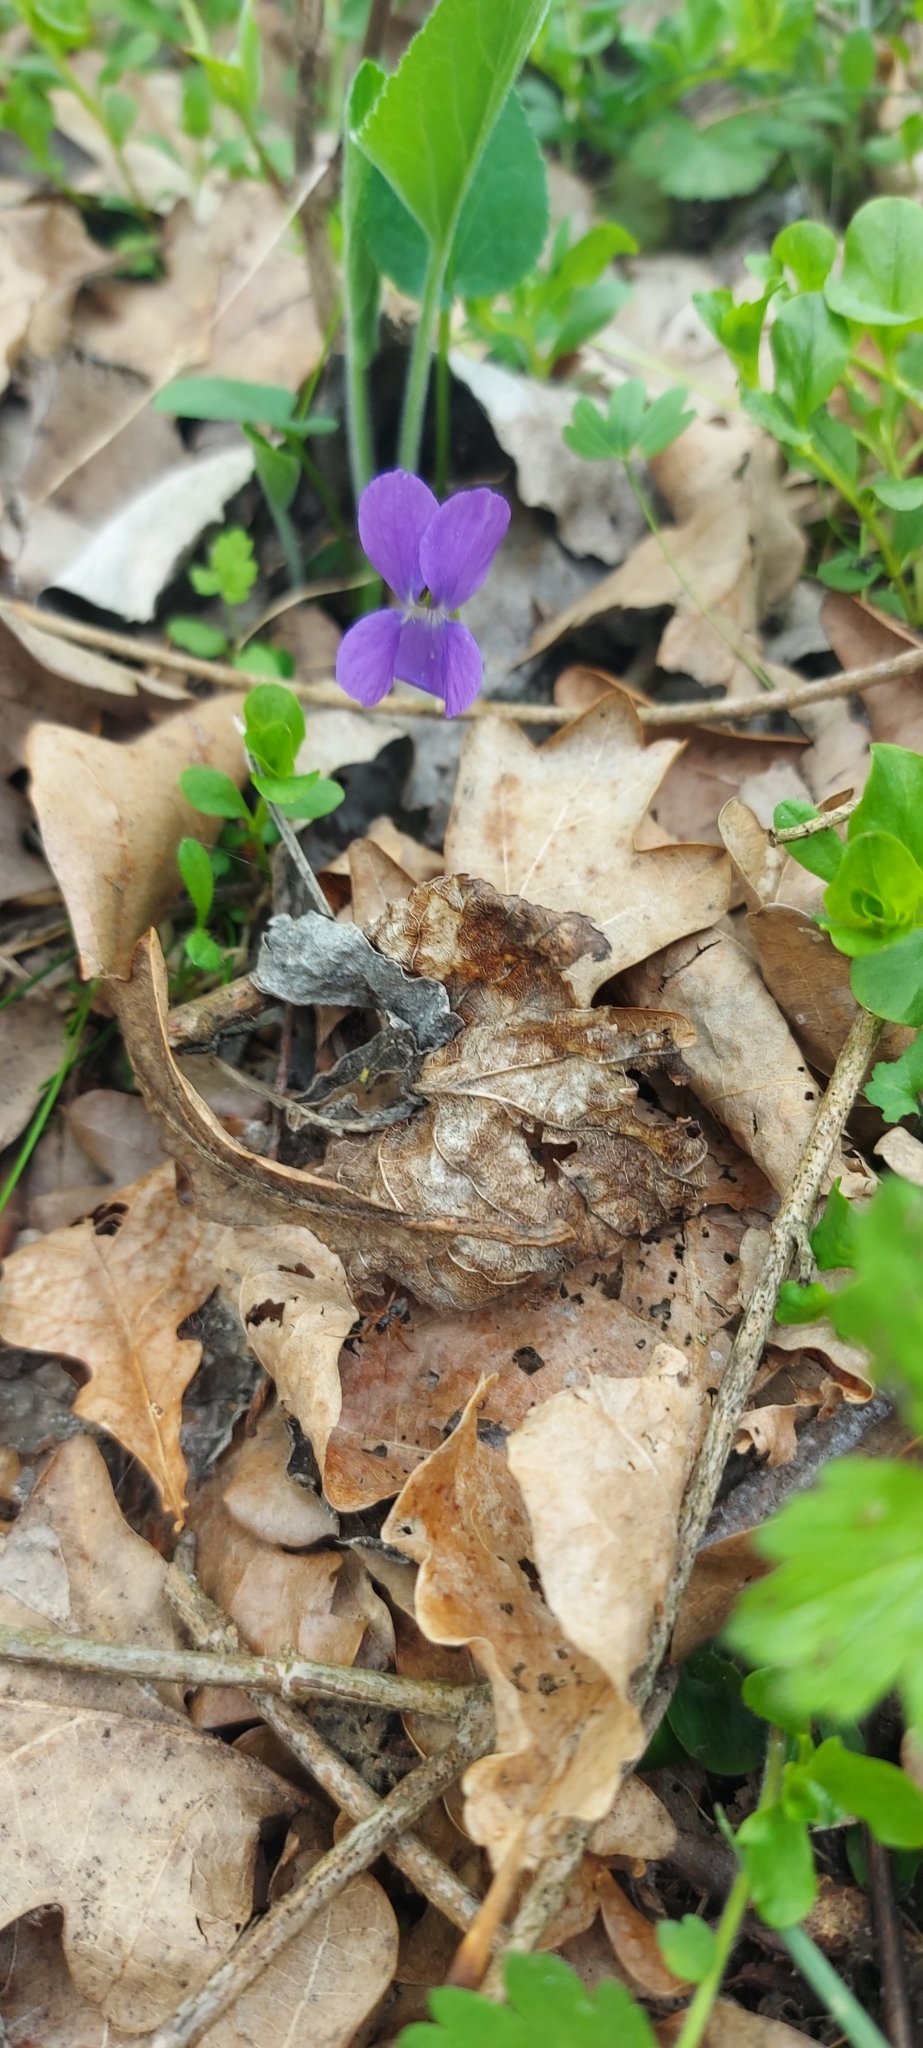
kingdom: Plantae
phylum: Tracheophyta
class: Magnoliopsida
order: Malpighiales
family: Violaceae
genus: Viola
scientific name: Viola hirta
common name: Hairy violet
